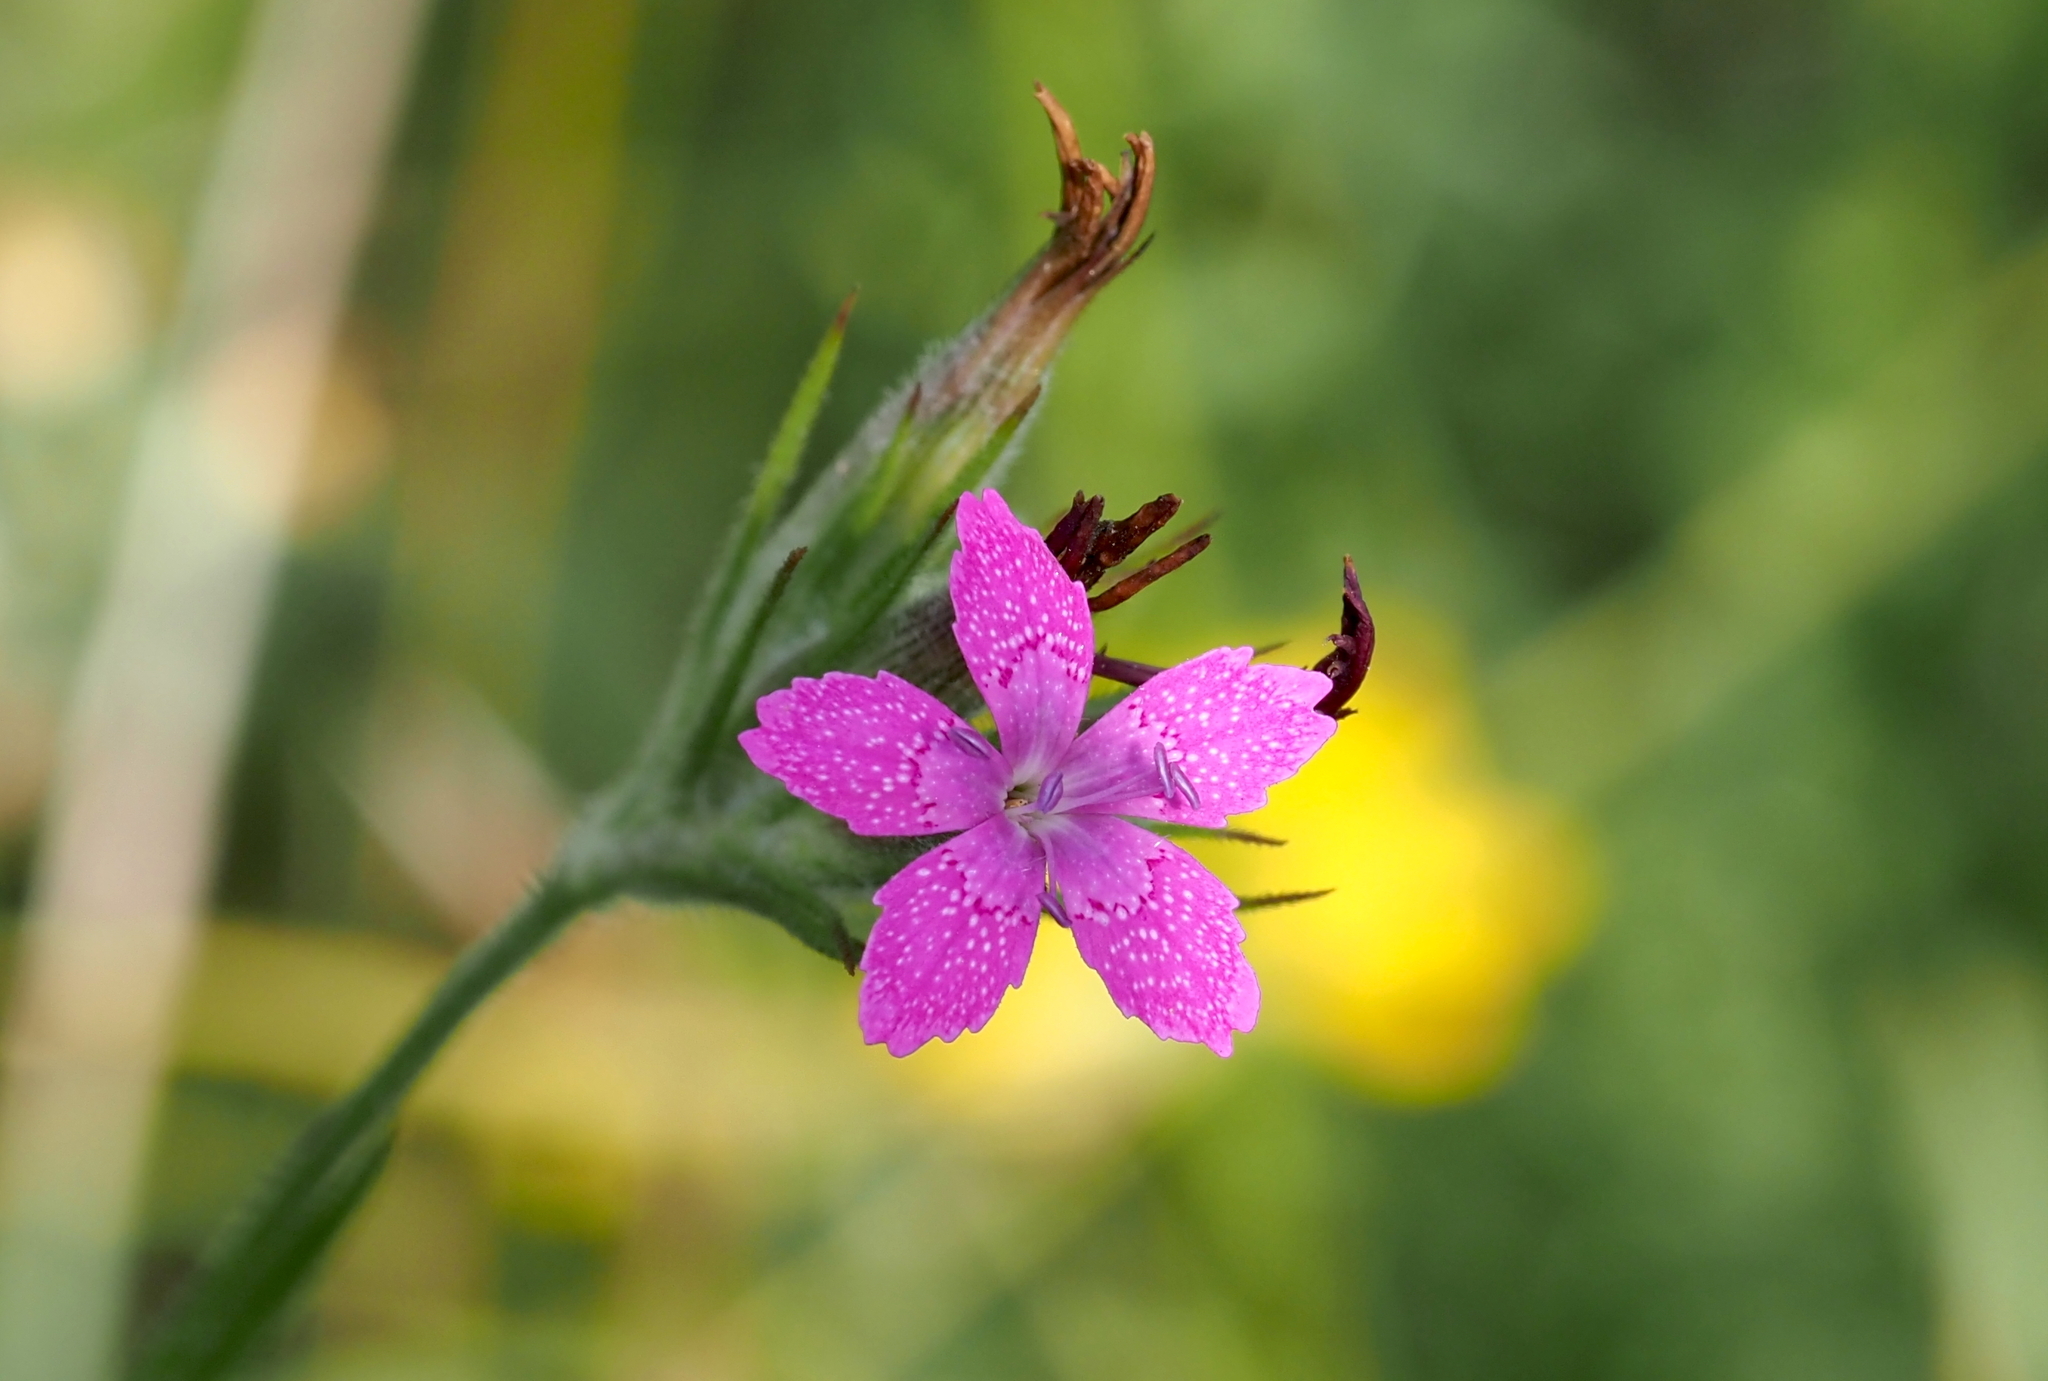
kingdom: Plantae
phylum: Tracheophyta
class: Magnoliopsida
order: Caryophyllales
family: Caryophyllaceae
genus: Dianthus
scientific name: Dianthus armeria
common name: Deptford pink
